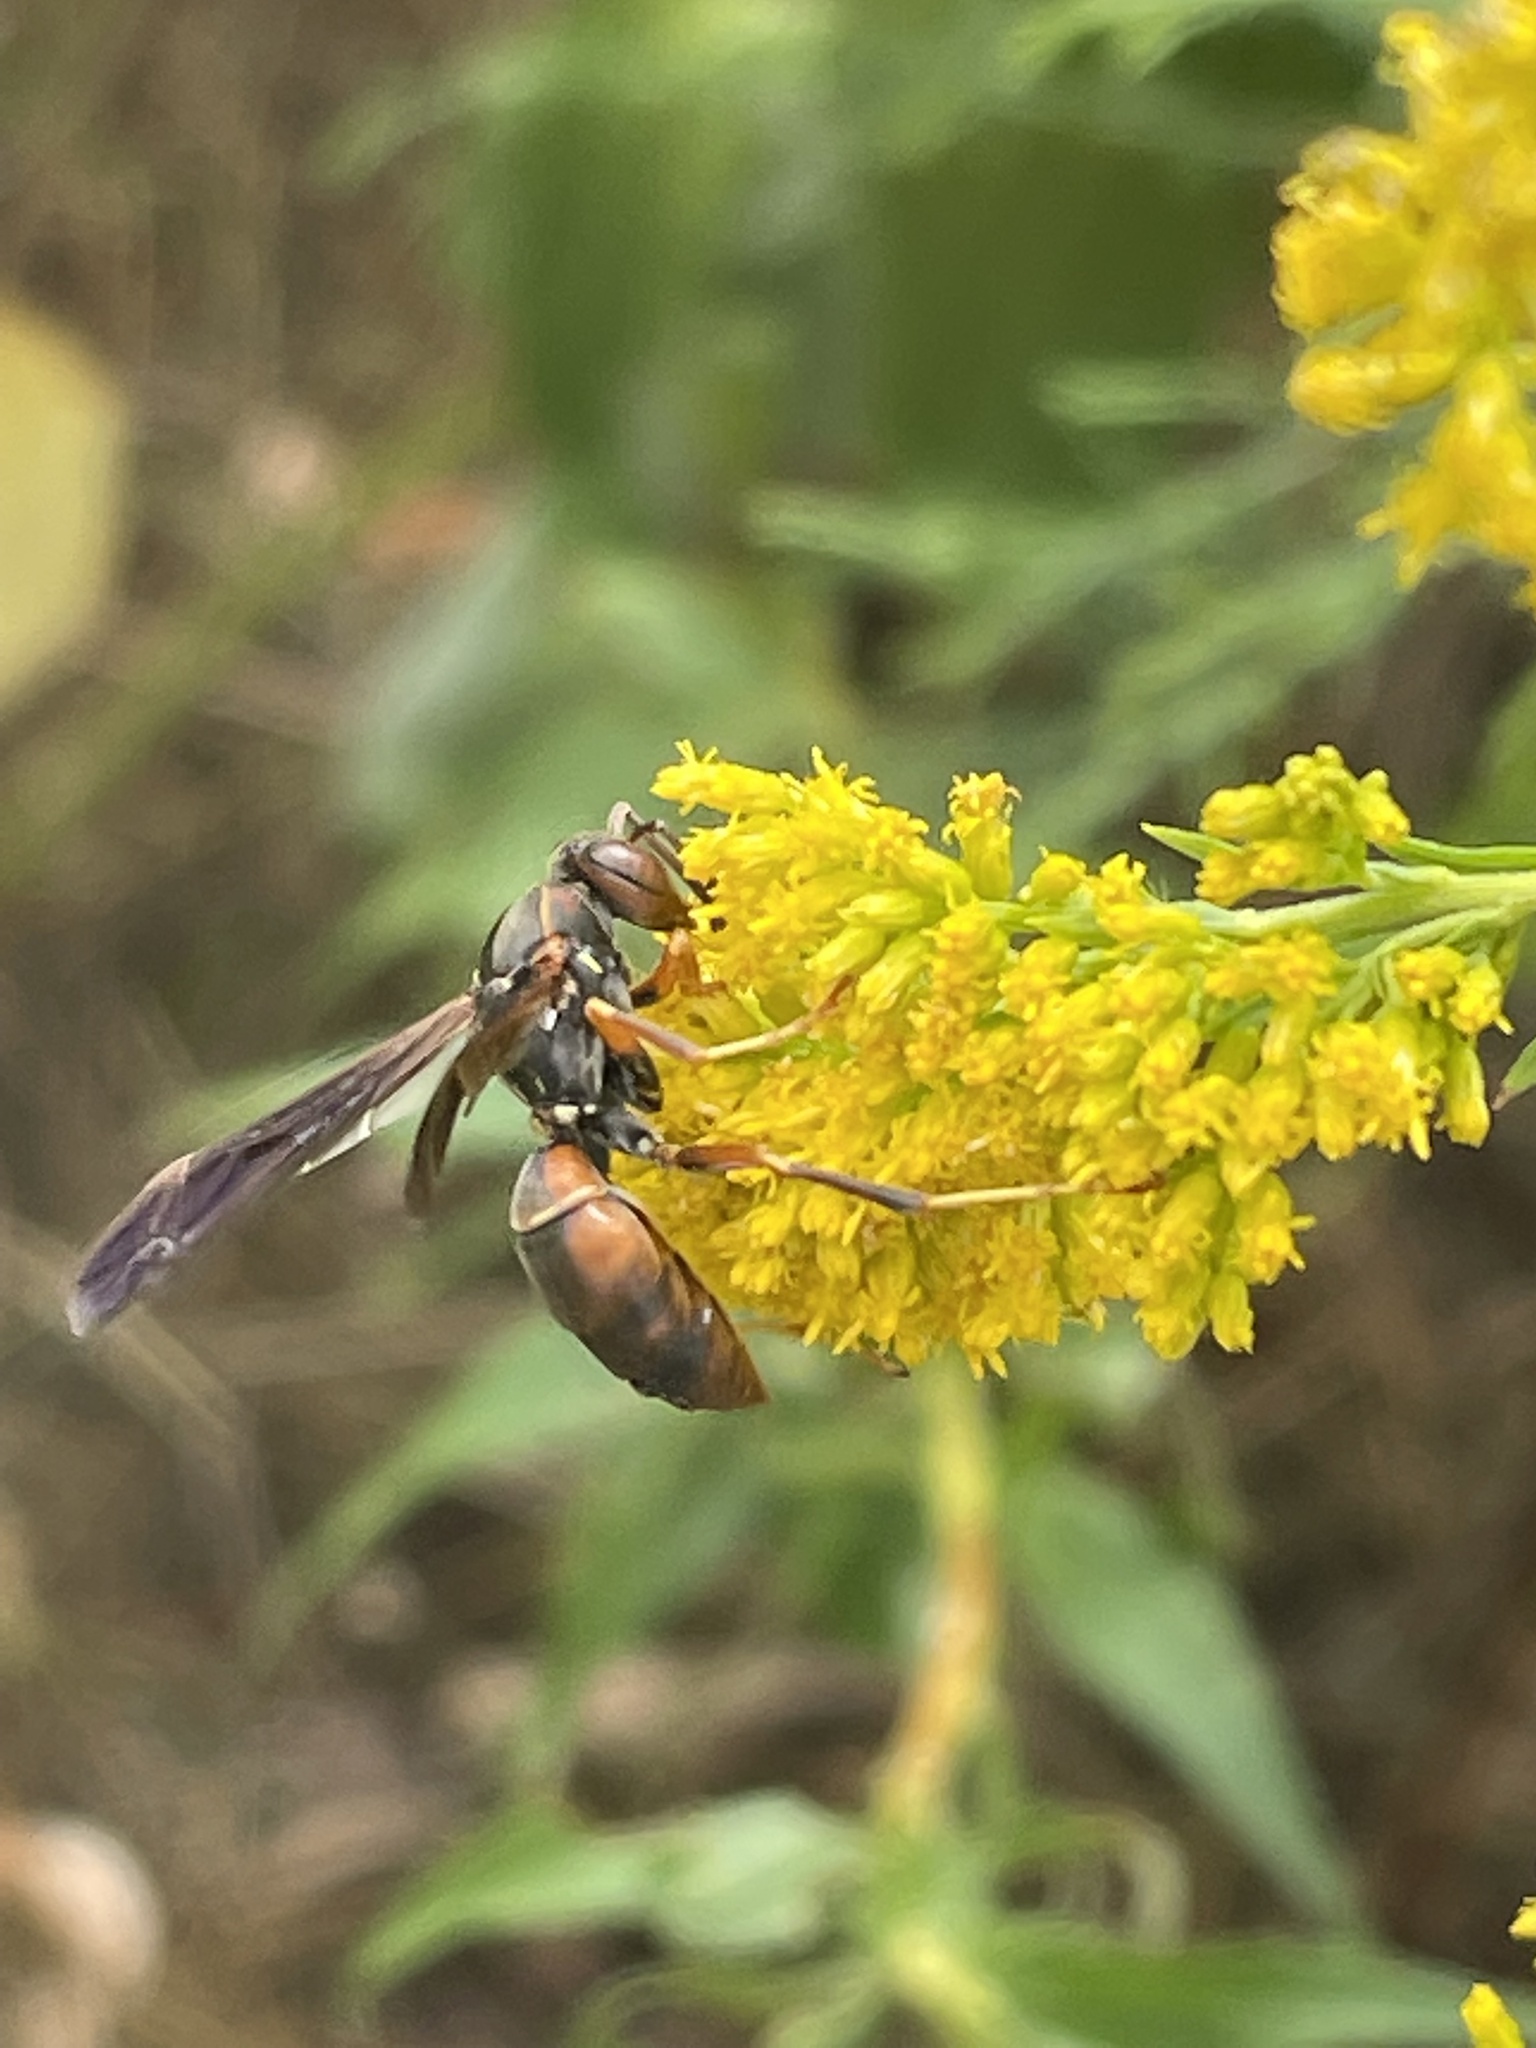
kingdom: Animalia
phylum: Arthropoda
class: Insecta
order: Hymenoptera
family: Eumenidae
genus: Polistes
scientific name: Polistes fuscatus
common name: Dark paper wasp
